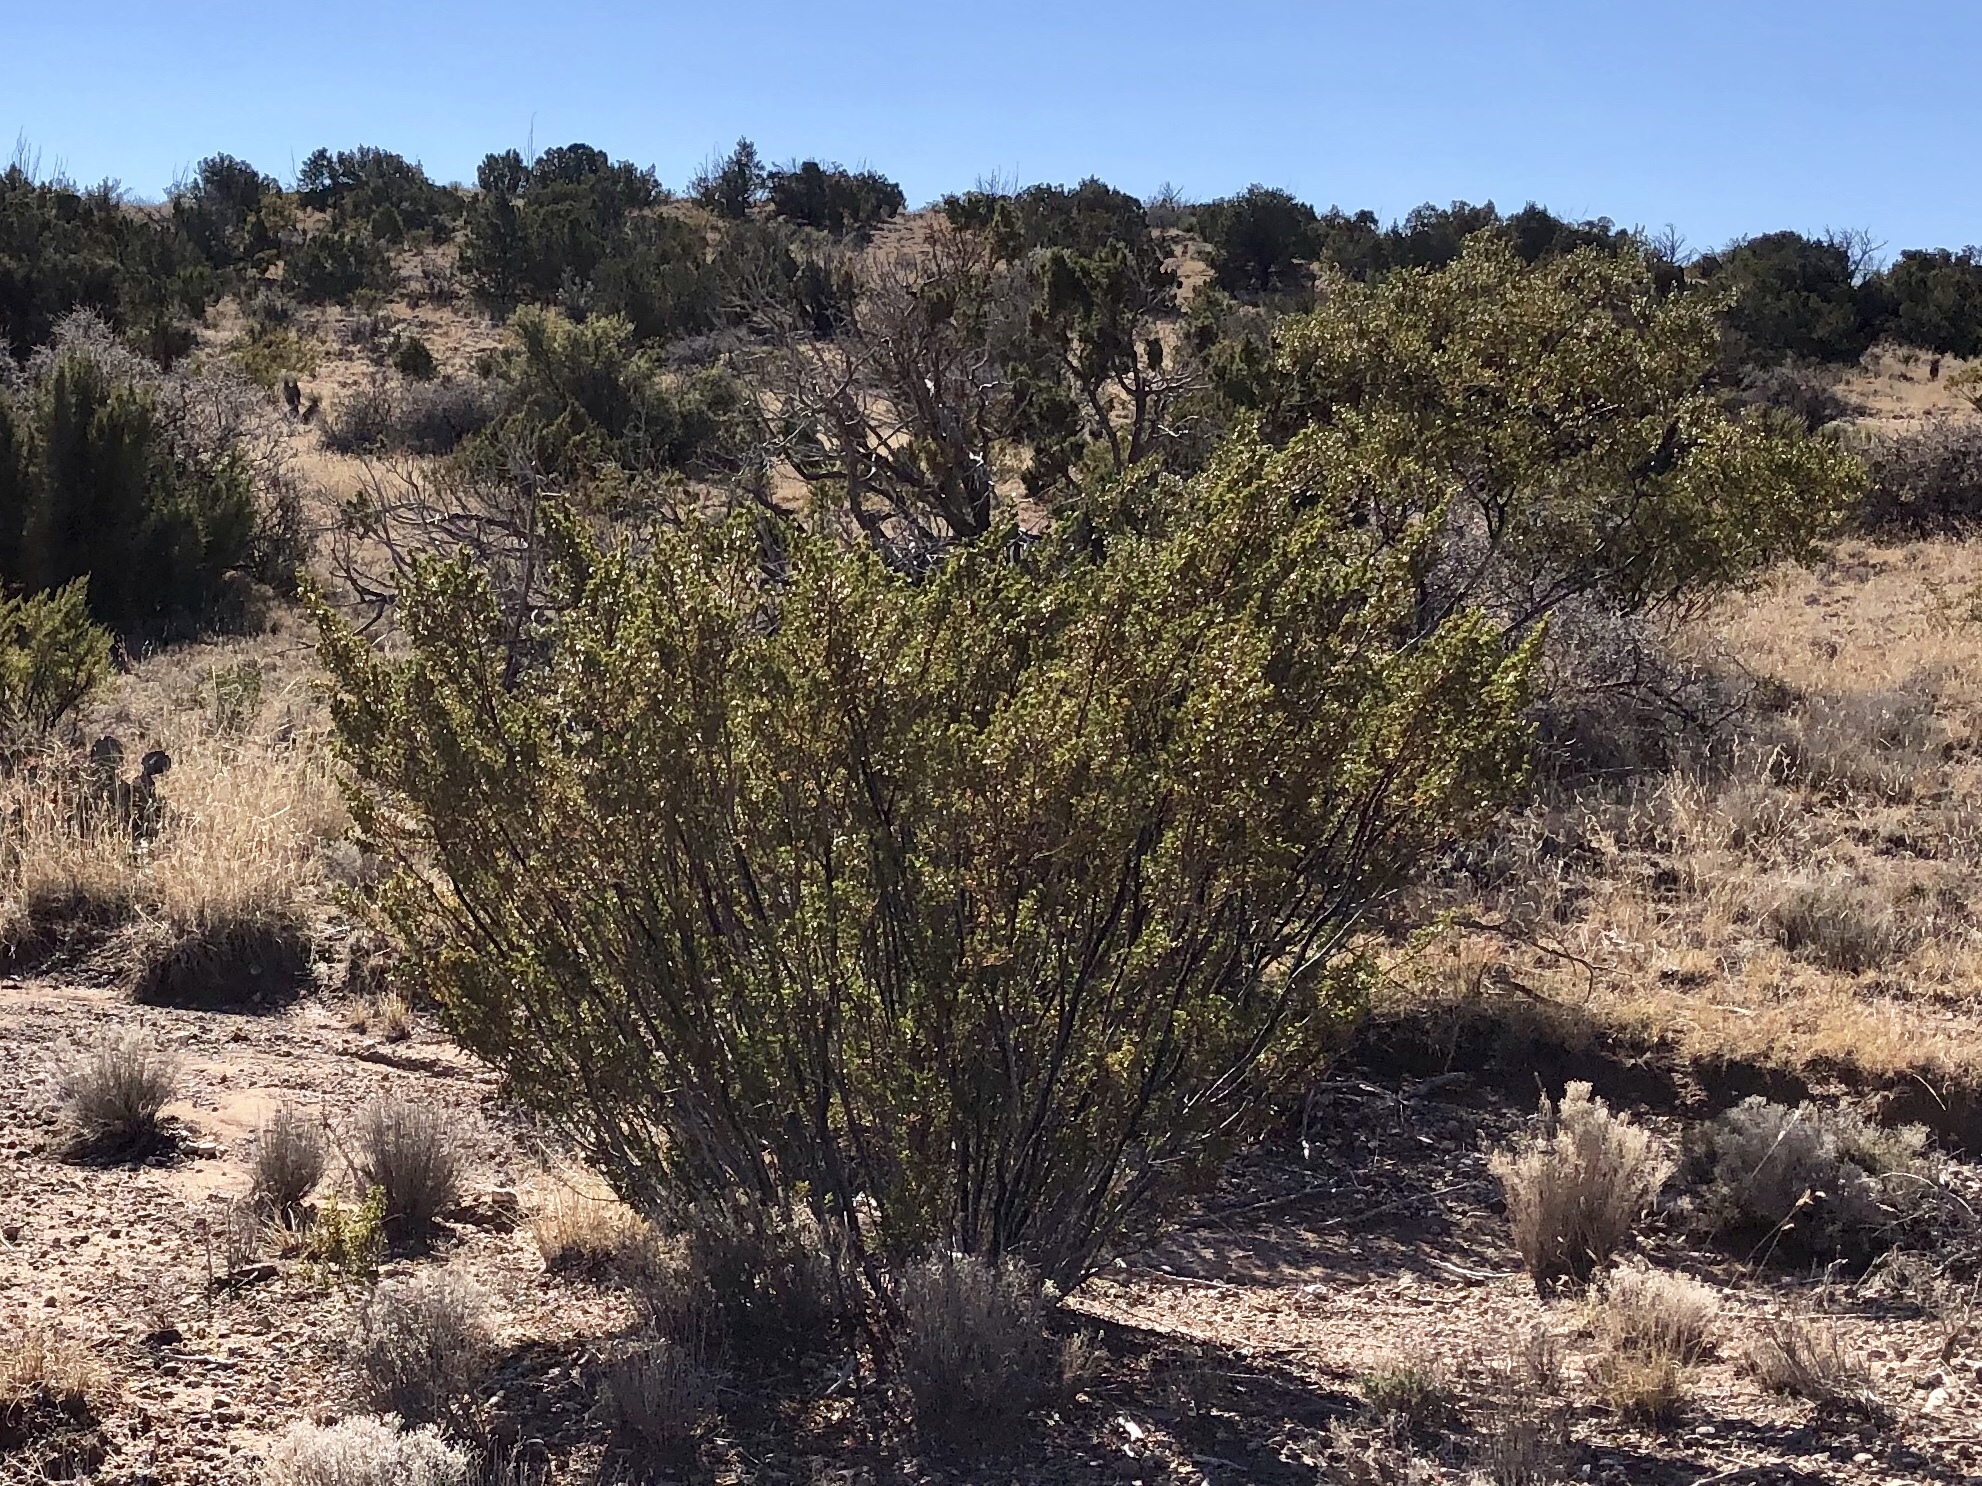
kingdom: Plantae
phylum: Tracheophyta
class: Magnoliopsida
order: Zygophyllales
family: Zygophyllaceae
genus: Larrea
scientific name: Larrea tridentata
